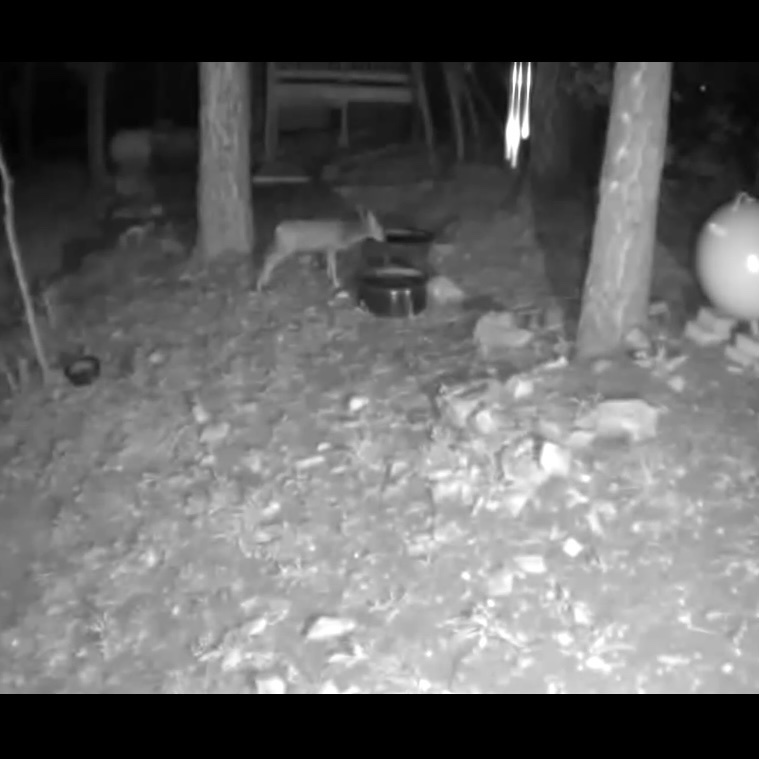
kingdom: Animalia
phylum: Chordata
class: Mammalia
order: Artiodactyla
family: Cervidae
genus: Odocoileus
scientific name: Odocoileus hemionus
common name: Mule deer
